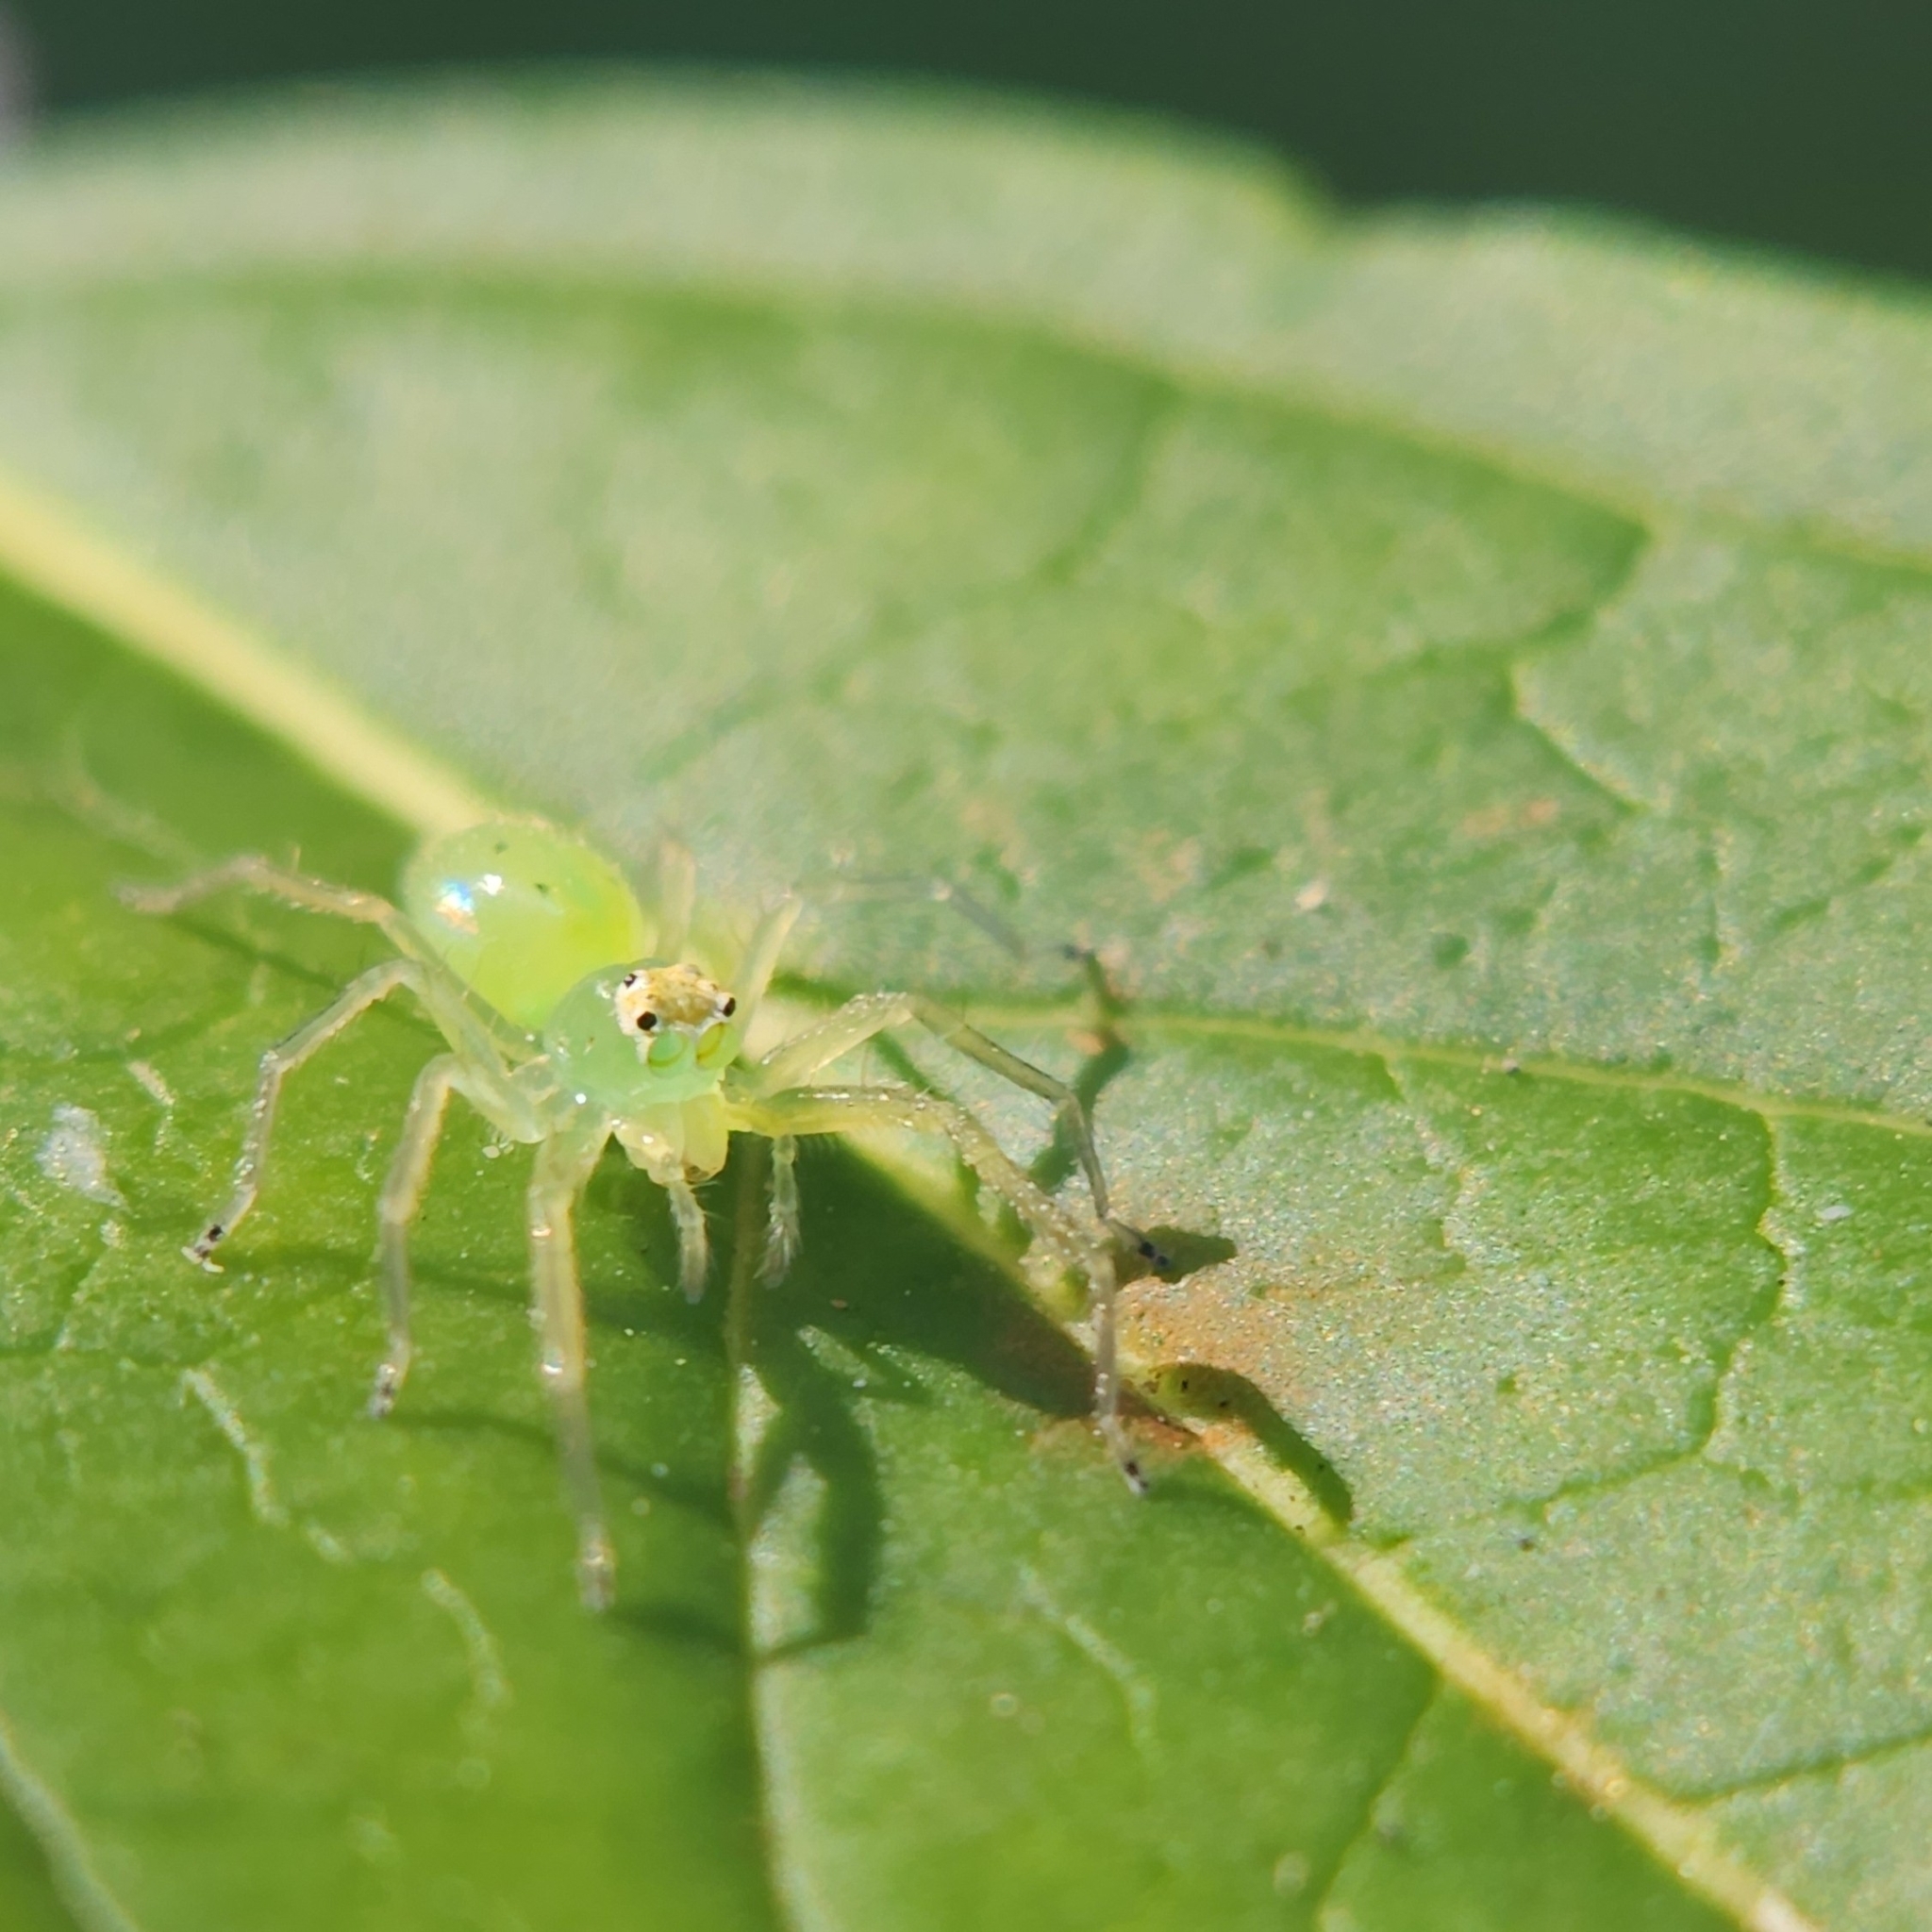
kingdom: Animalia
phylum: Arthropoda
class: Arachnida
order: Araneae
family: Salticidae
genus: Lyssomanes
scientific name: Lyssomanes viridis
